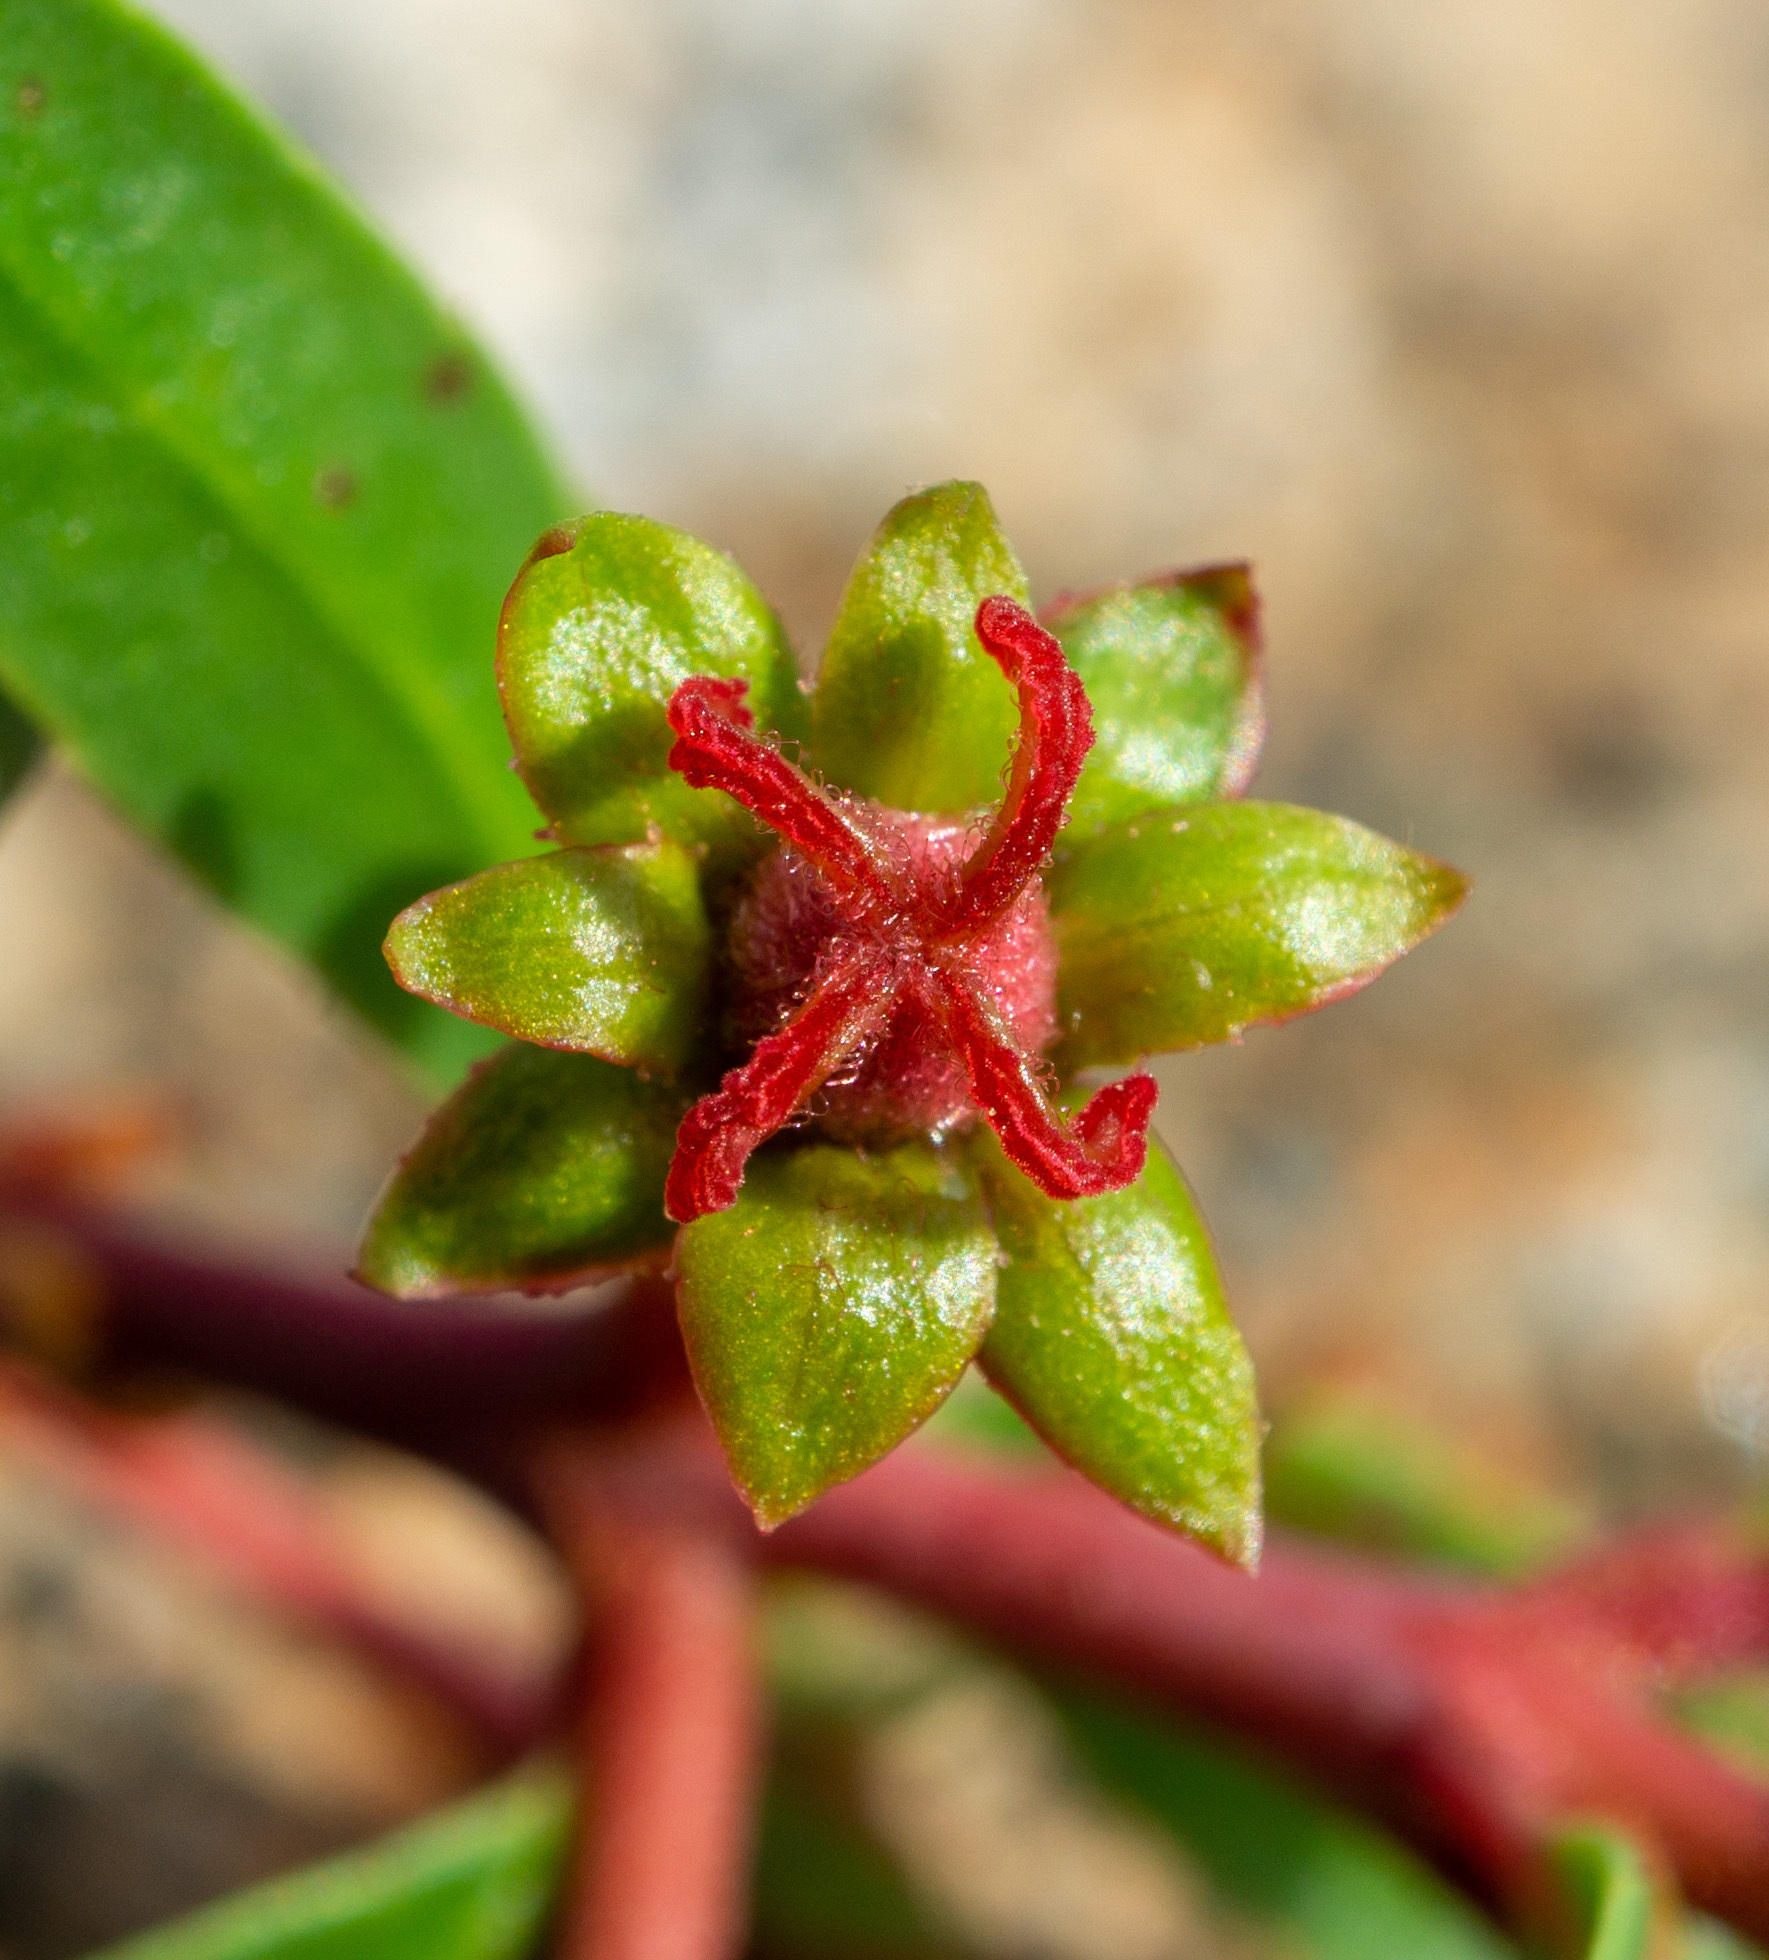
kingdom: Plantae
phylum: Tracheophyta
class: Magnoliopsida
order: Malpighiales
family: Picrodendraceae
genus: Tetracoccus
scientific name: Tetracoccus dioicus
